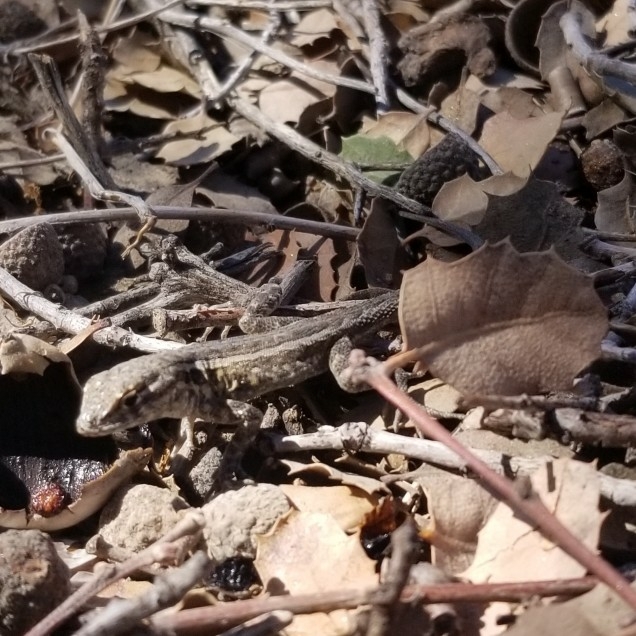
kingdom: Animalia
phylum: Chordata
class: Squamata
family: Phrynosomatidae
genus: Uta
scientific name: Uta stansburiana
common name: Side-blotched lizard
